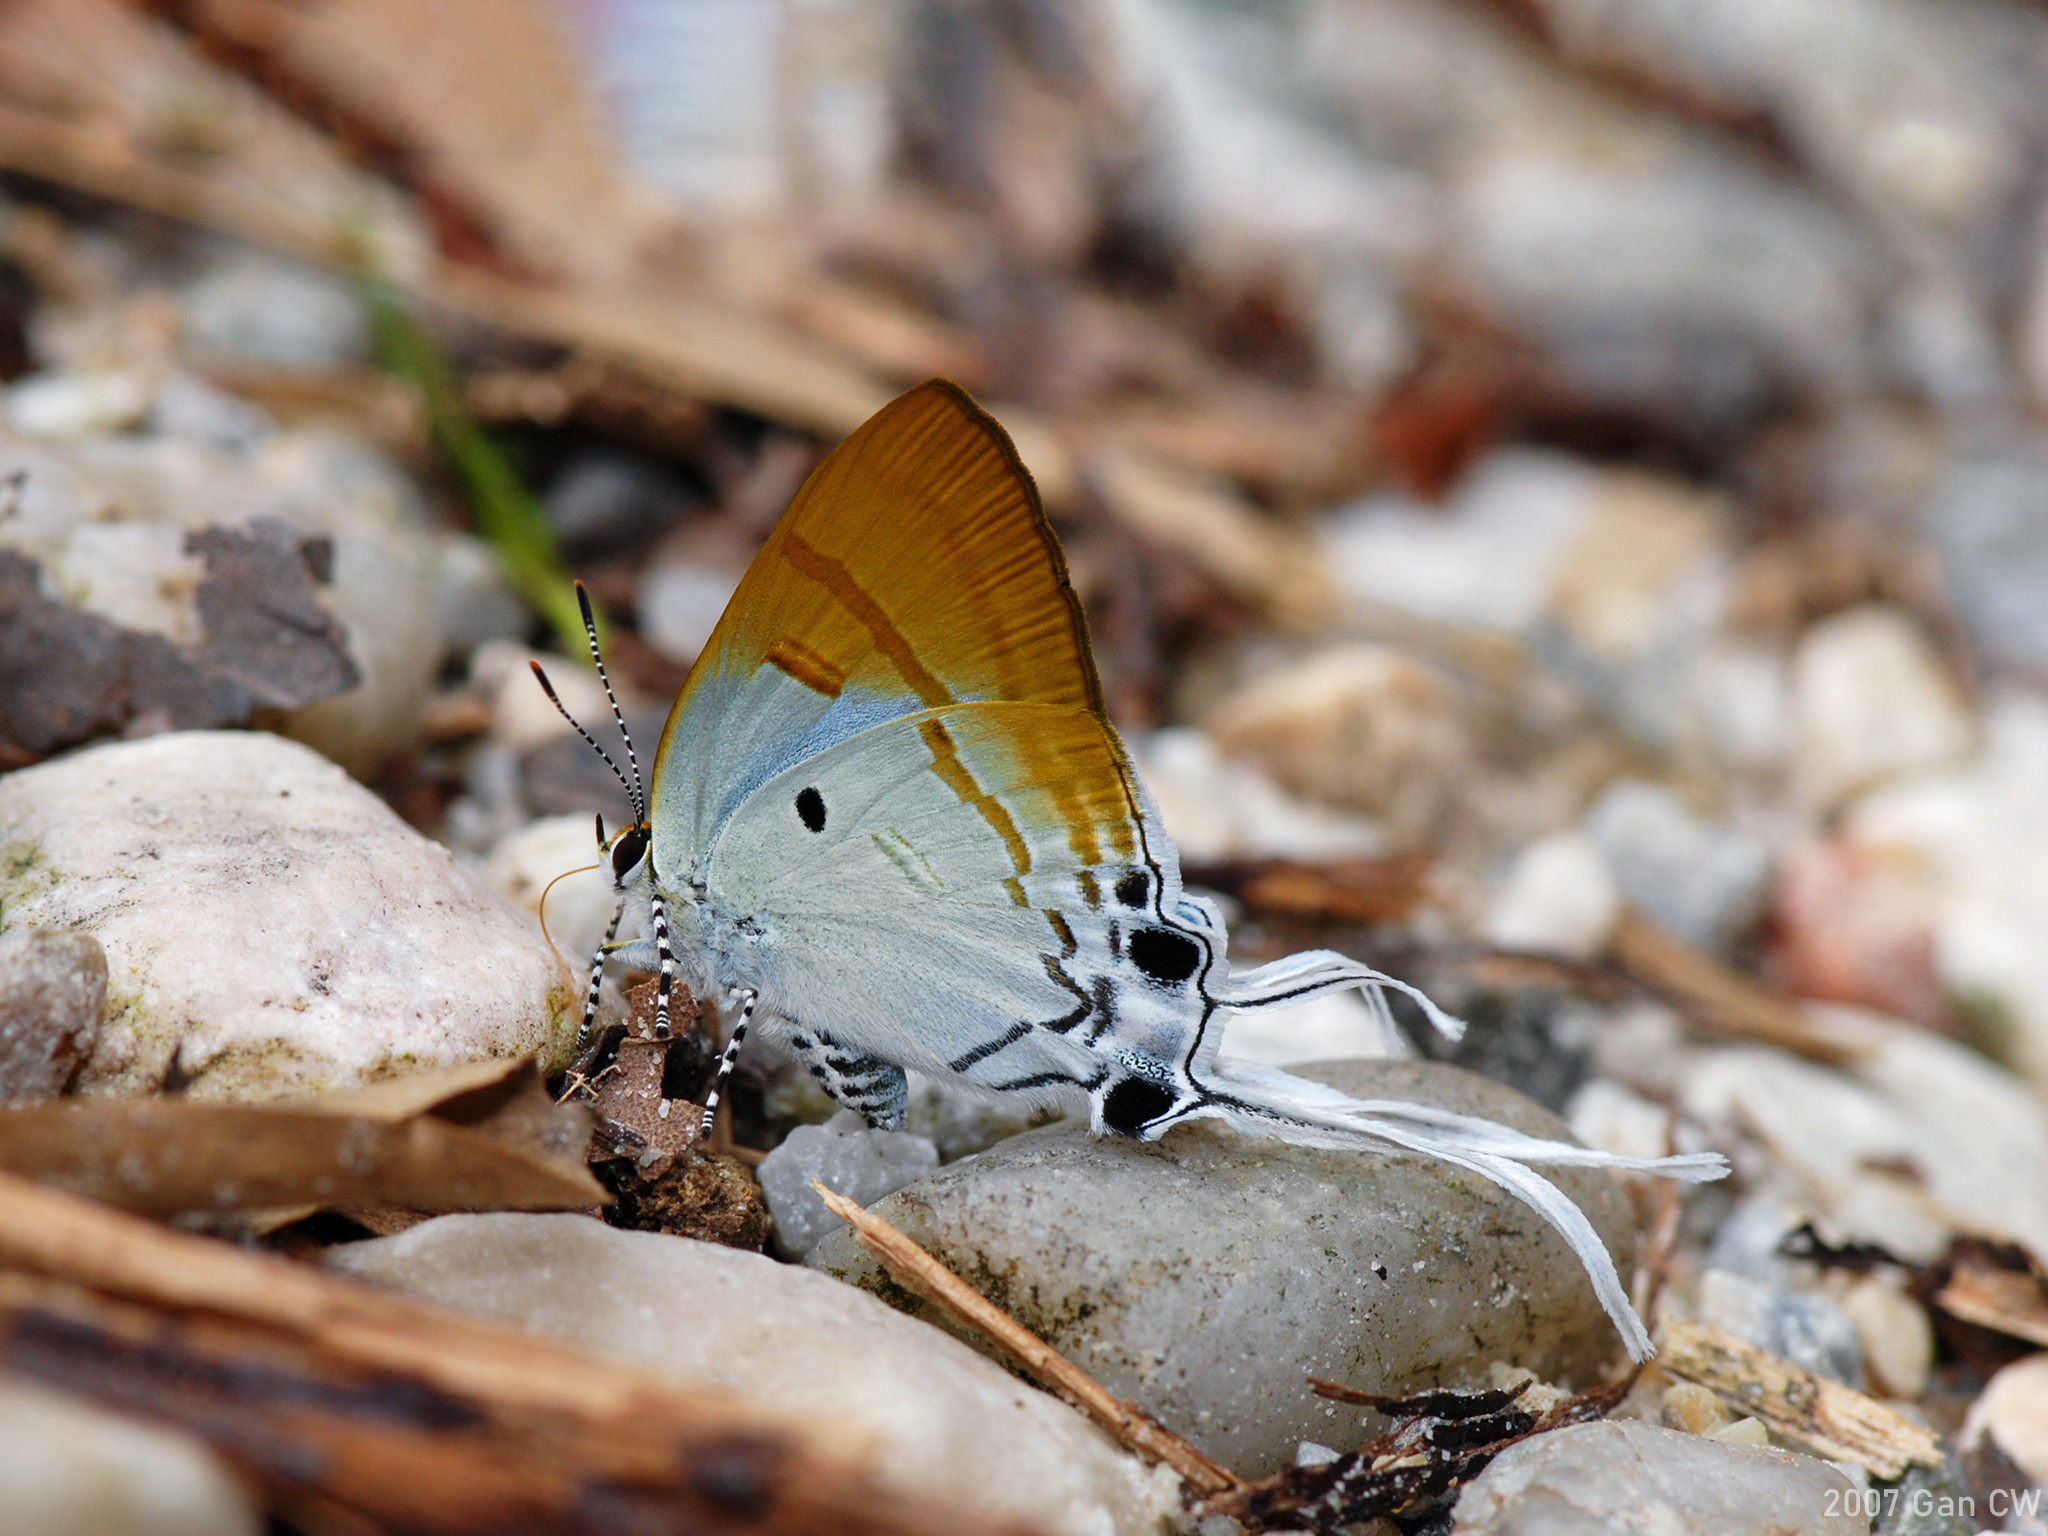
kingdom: Animalia
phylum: Arthropoda
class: Insecta
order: Lepidoptera
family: Lycaenidae
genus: Zeltus
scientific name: Zeltus amasa
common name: Fluffy tit
